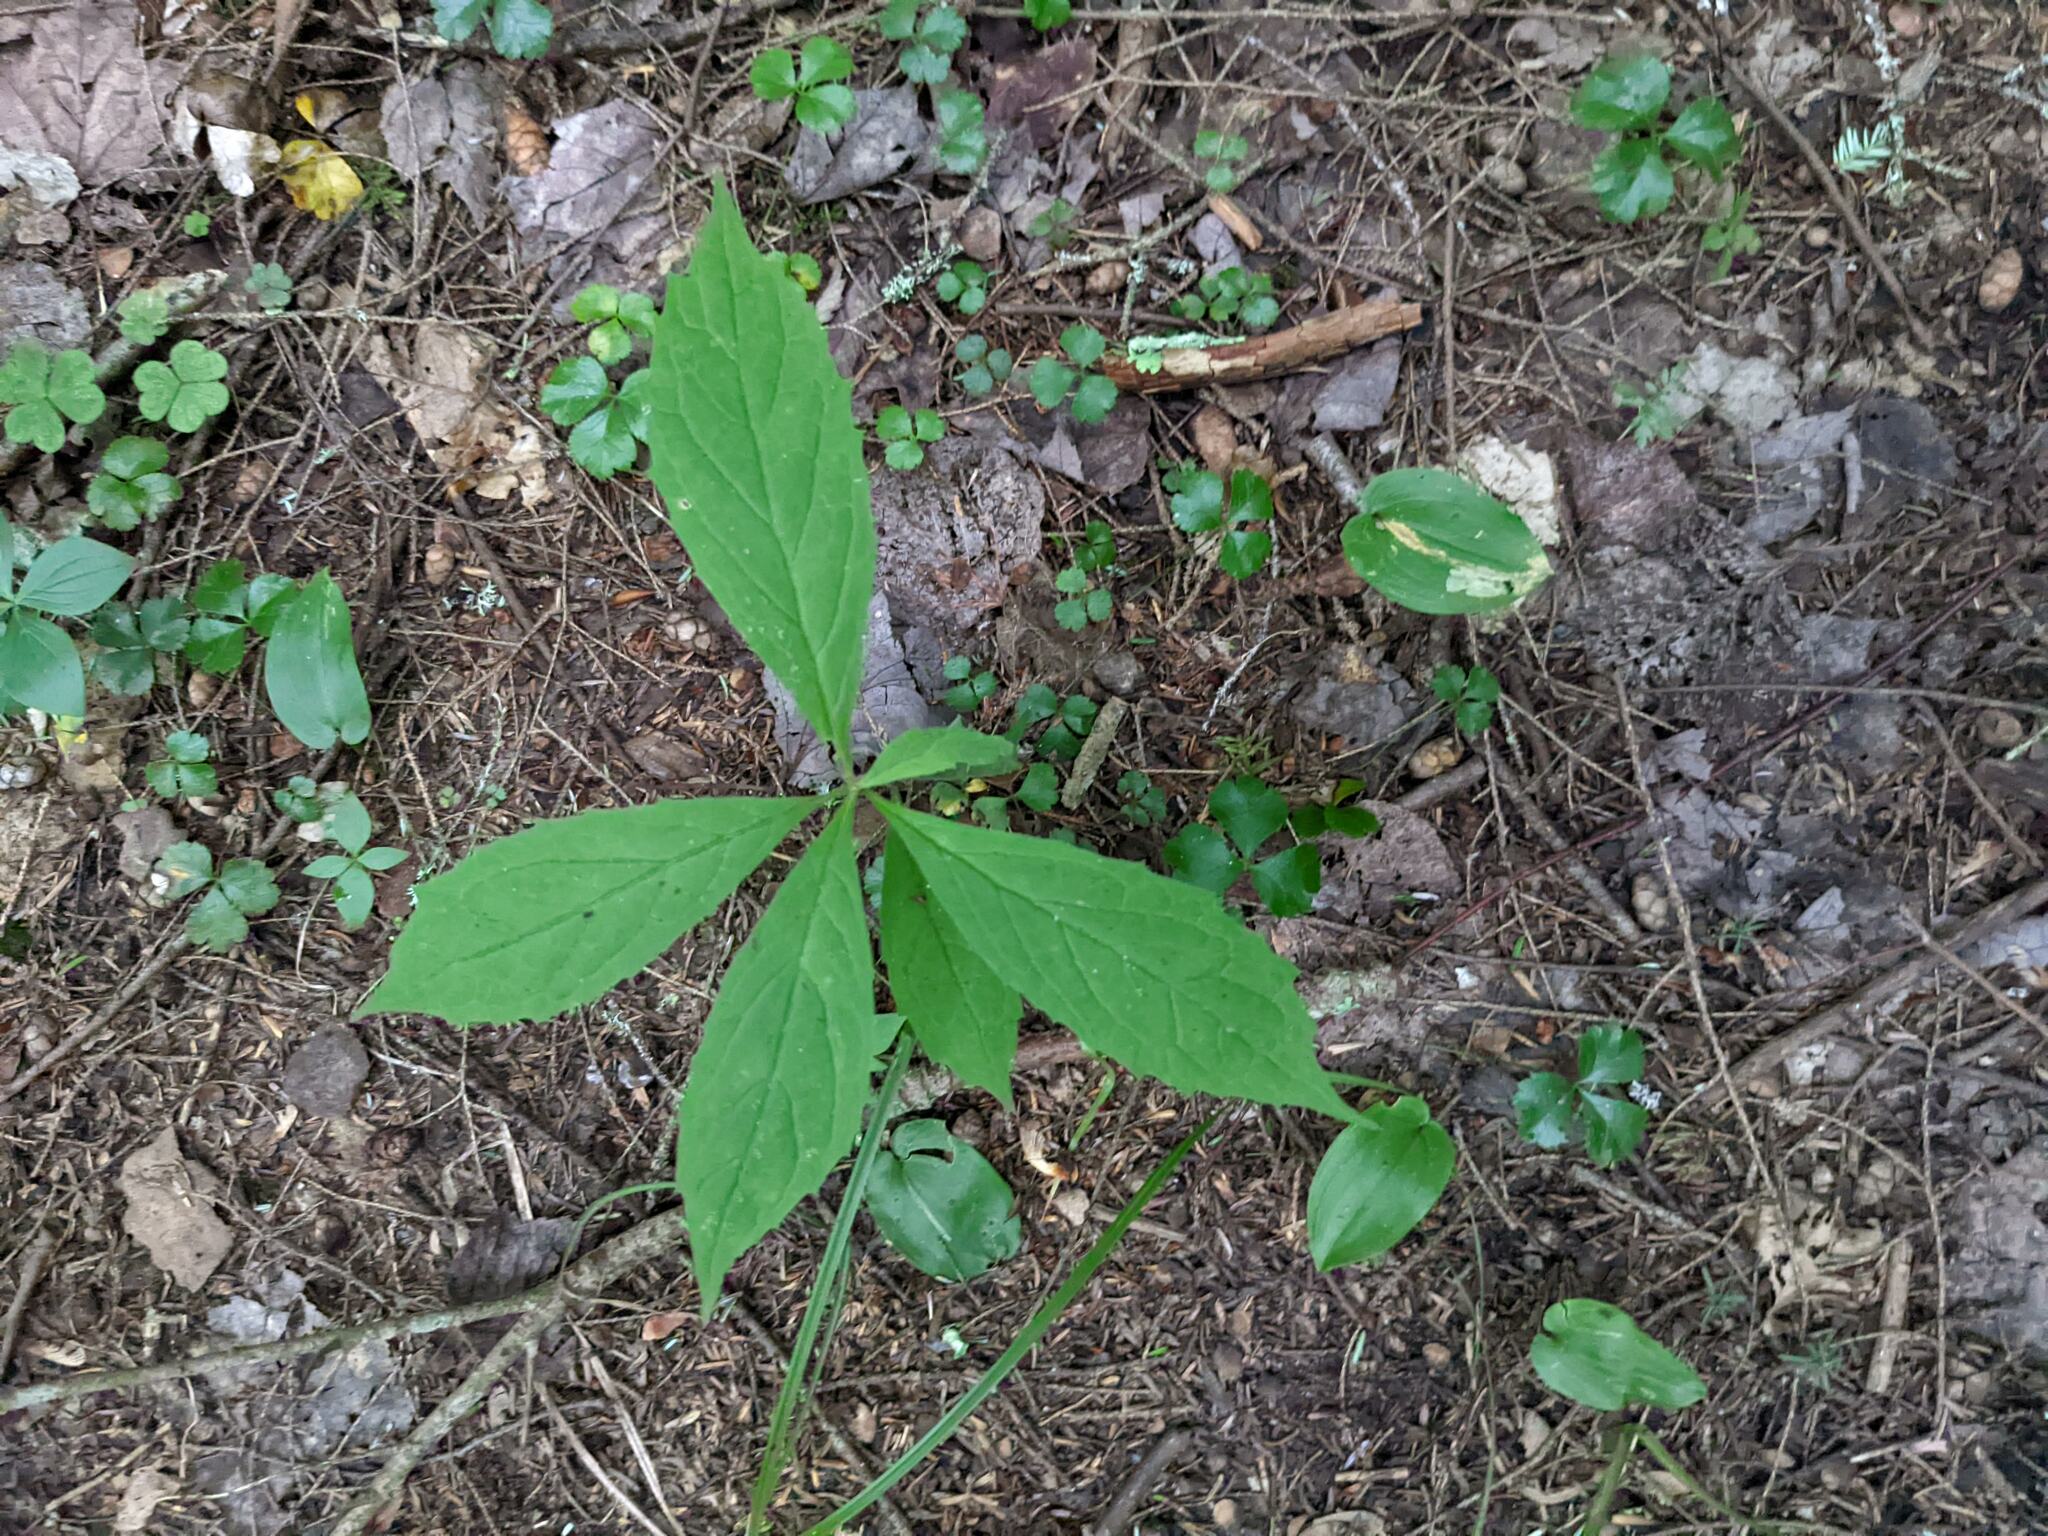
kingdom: Plantae
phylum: Tracheophyta
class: Magnoliopsida
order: Ranunculales
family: Ranunculaceae
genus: Coptis
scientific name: Coptis trifolia
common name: Canker-root
